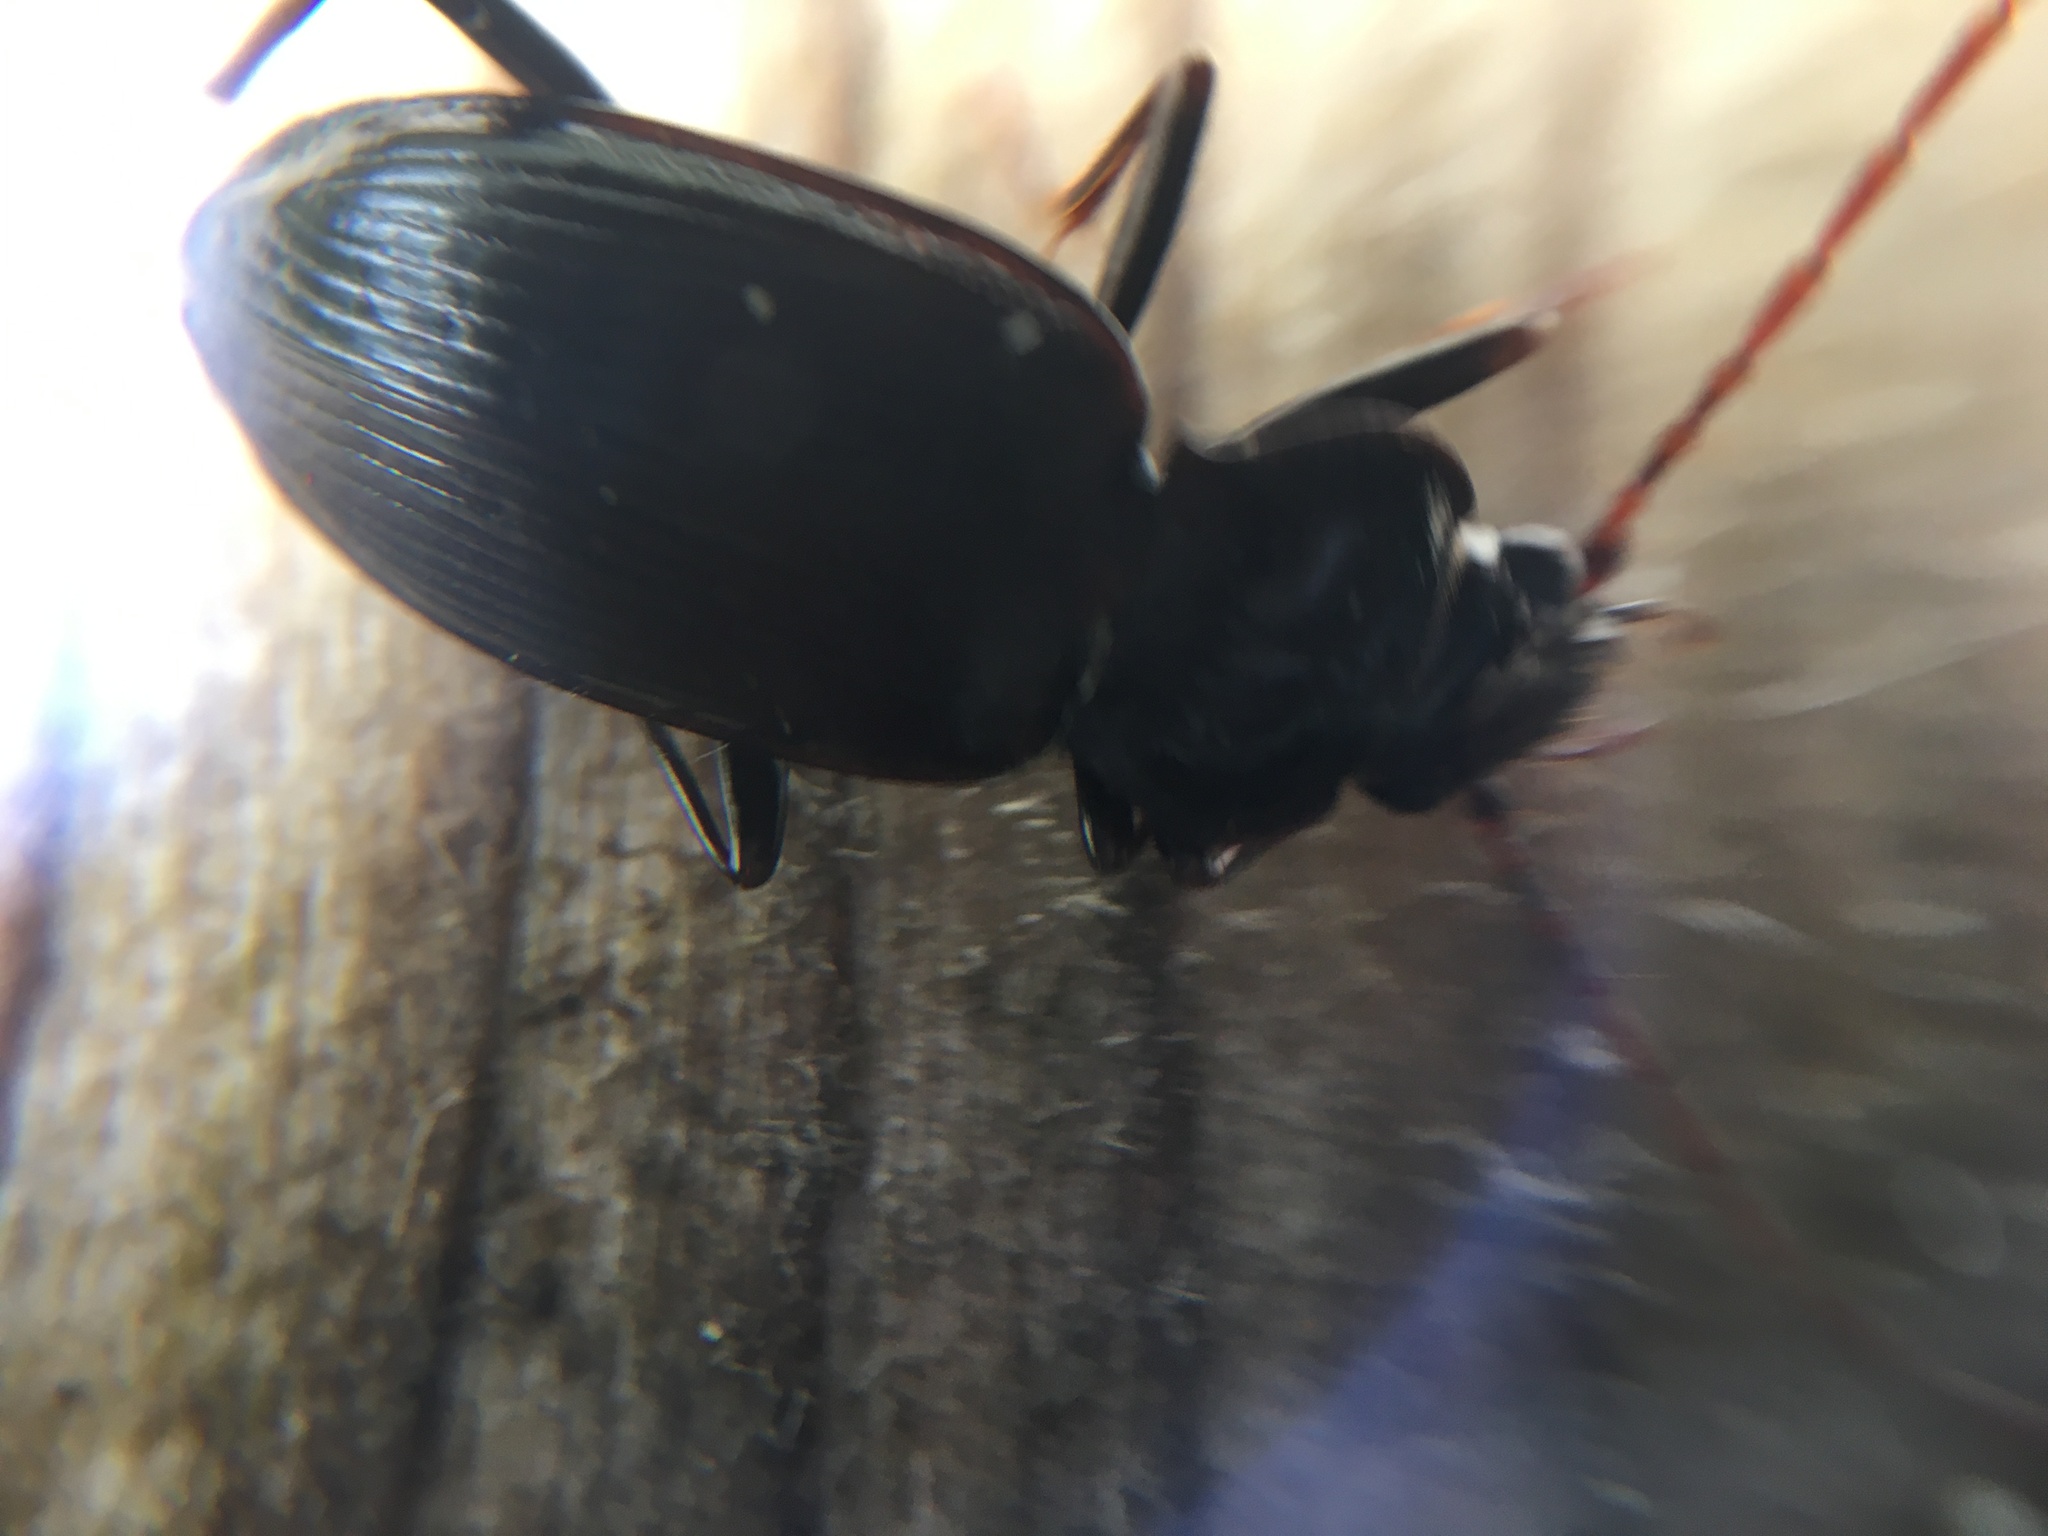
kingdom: Animalia
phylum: Arthropoda
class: Insecta
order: Coleoptera
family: Carabidae
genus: Nebria
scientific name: Nebria brevicollis
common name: Short-necked gazelle beetle
